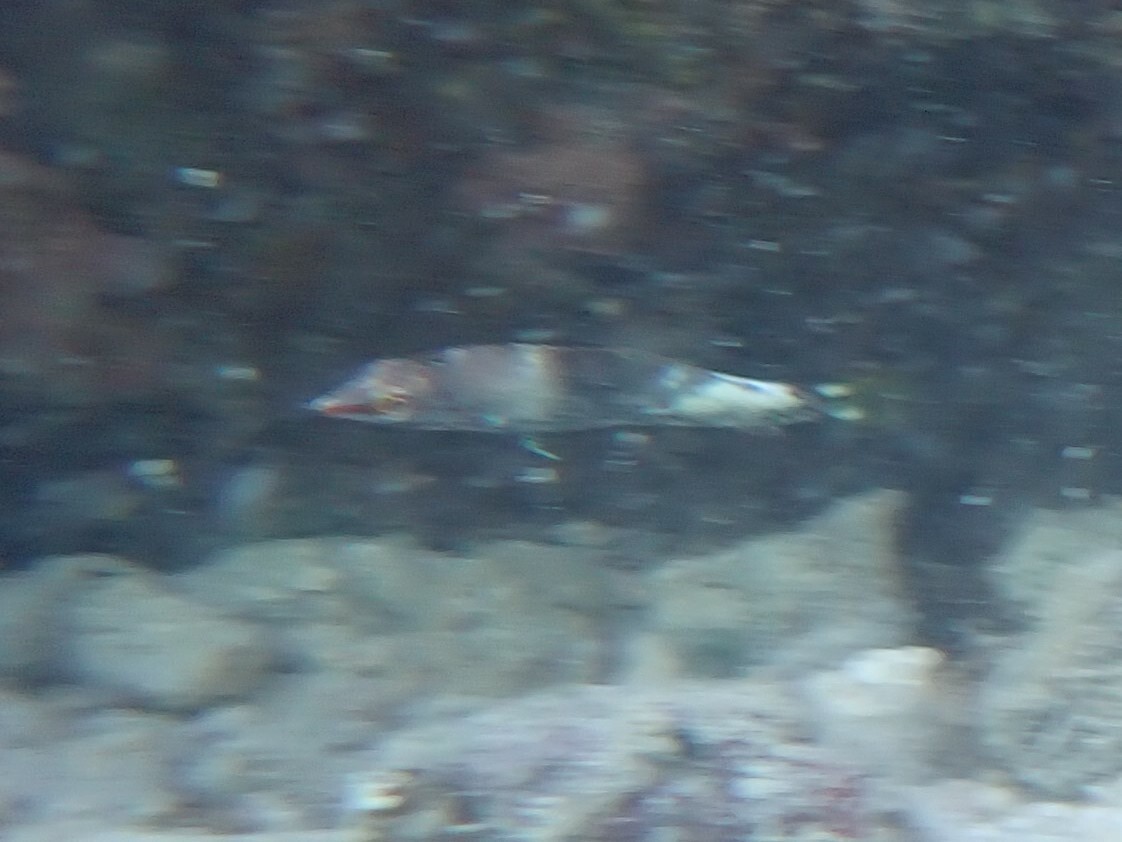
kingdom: Animalia
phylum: Chordata
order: Perciformes
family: Labridae
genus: Halichoeres
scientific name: Halichoeres hortulanus
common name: Checkerboard wrasse
